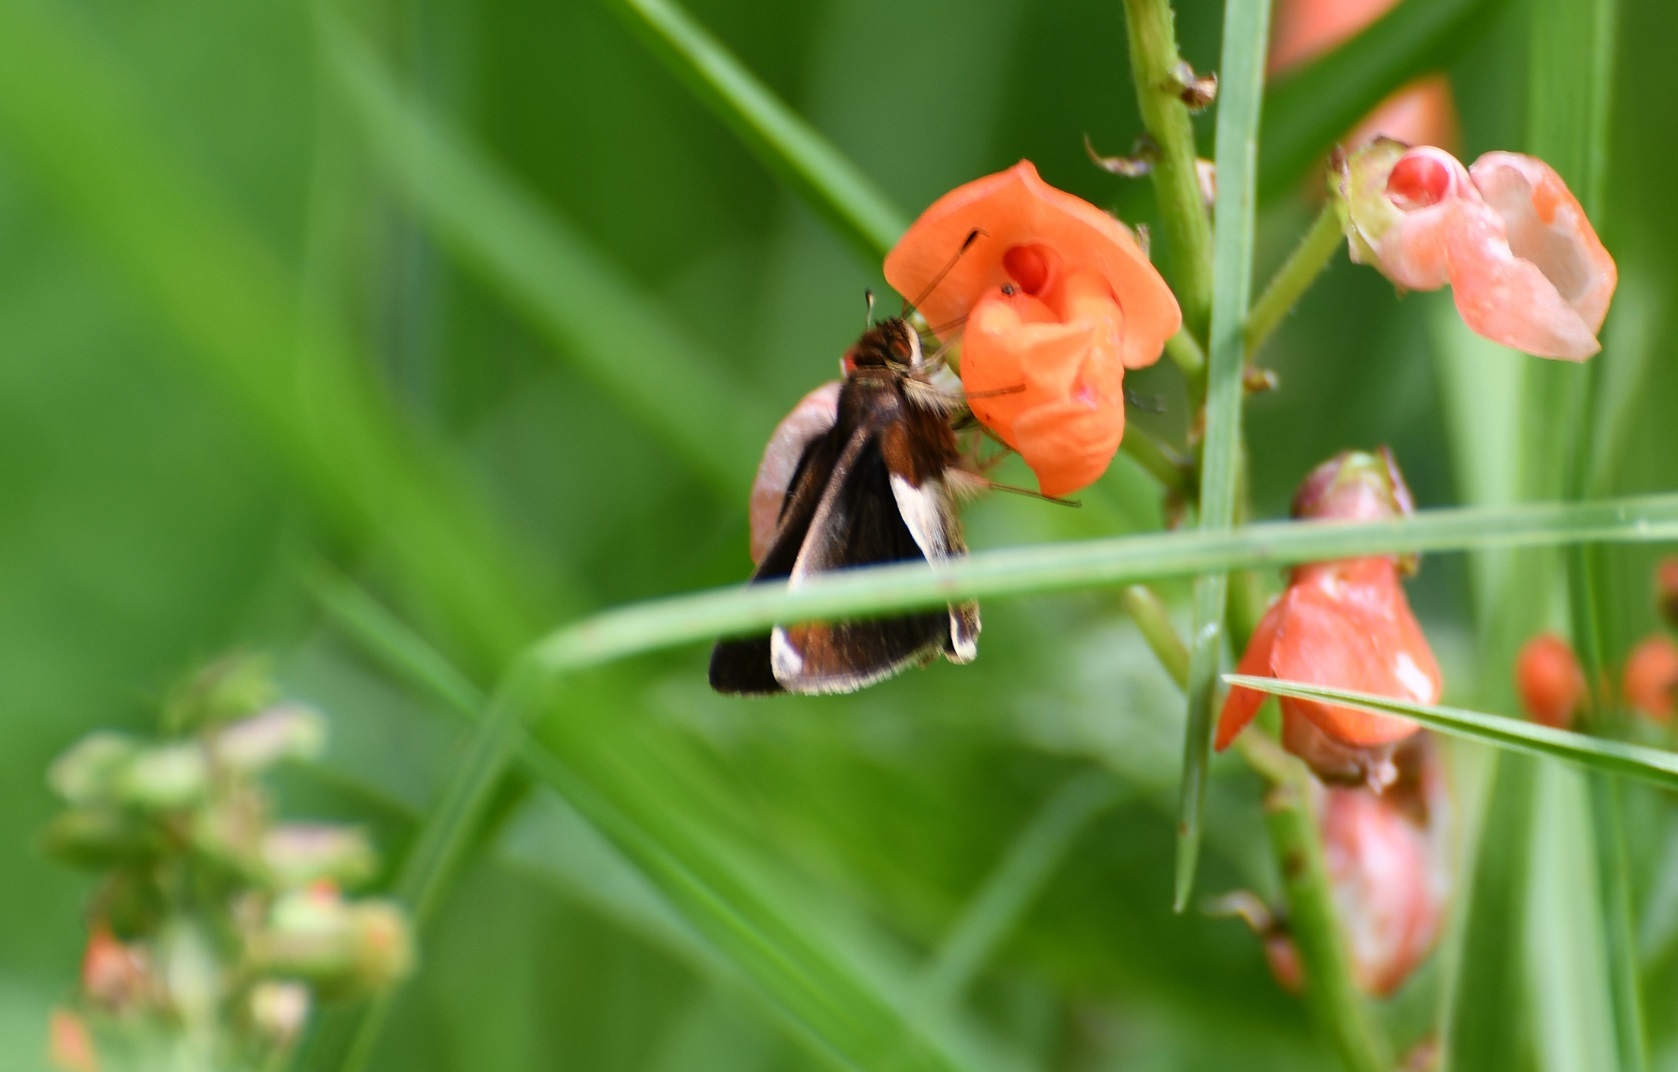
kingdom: Animalia
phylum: Arthropoda
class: Insecta
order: Lepidoptera
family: Hesperiidae
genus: Moeris
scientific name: Moeris Remella rita
